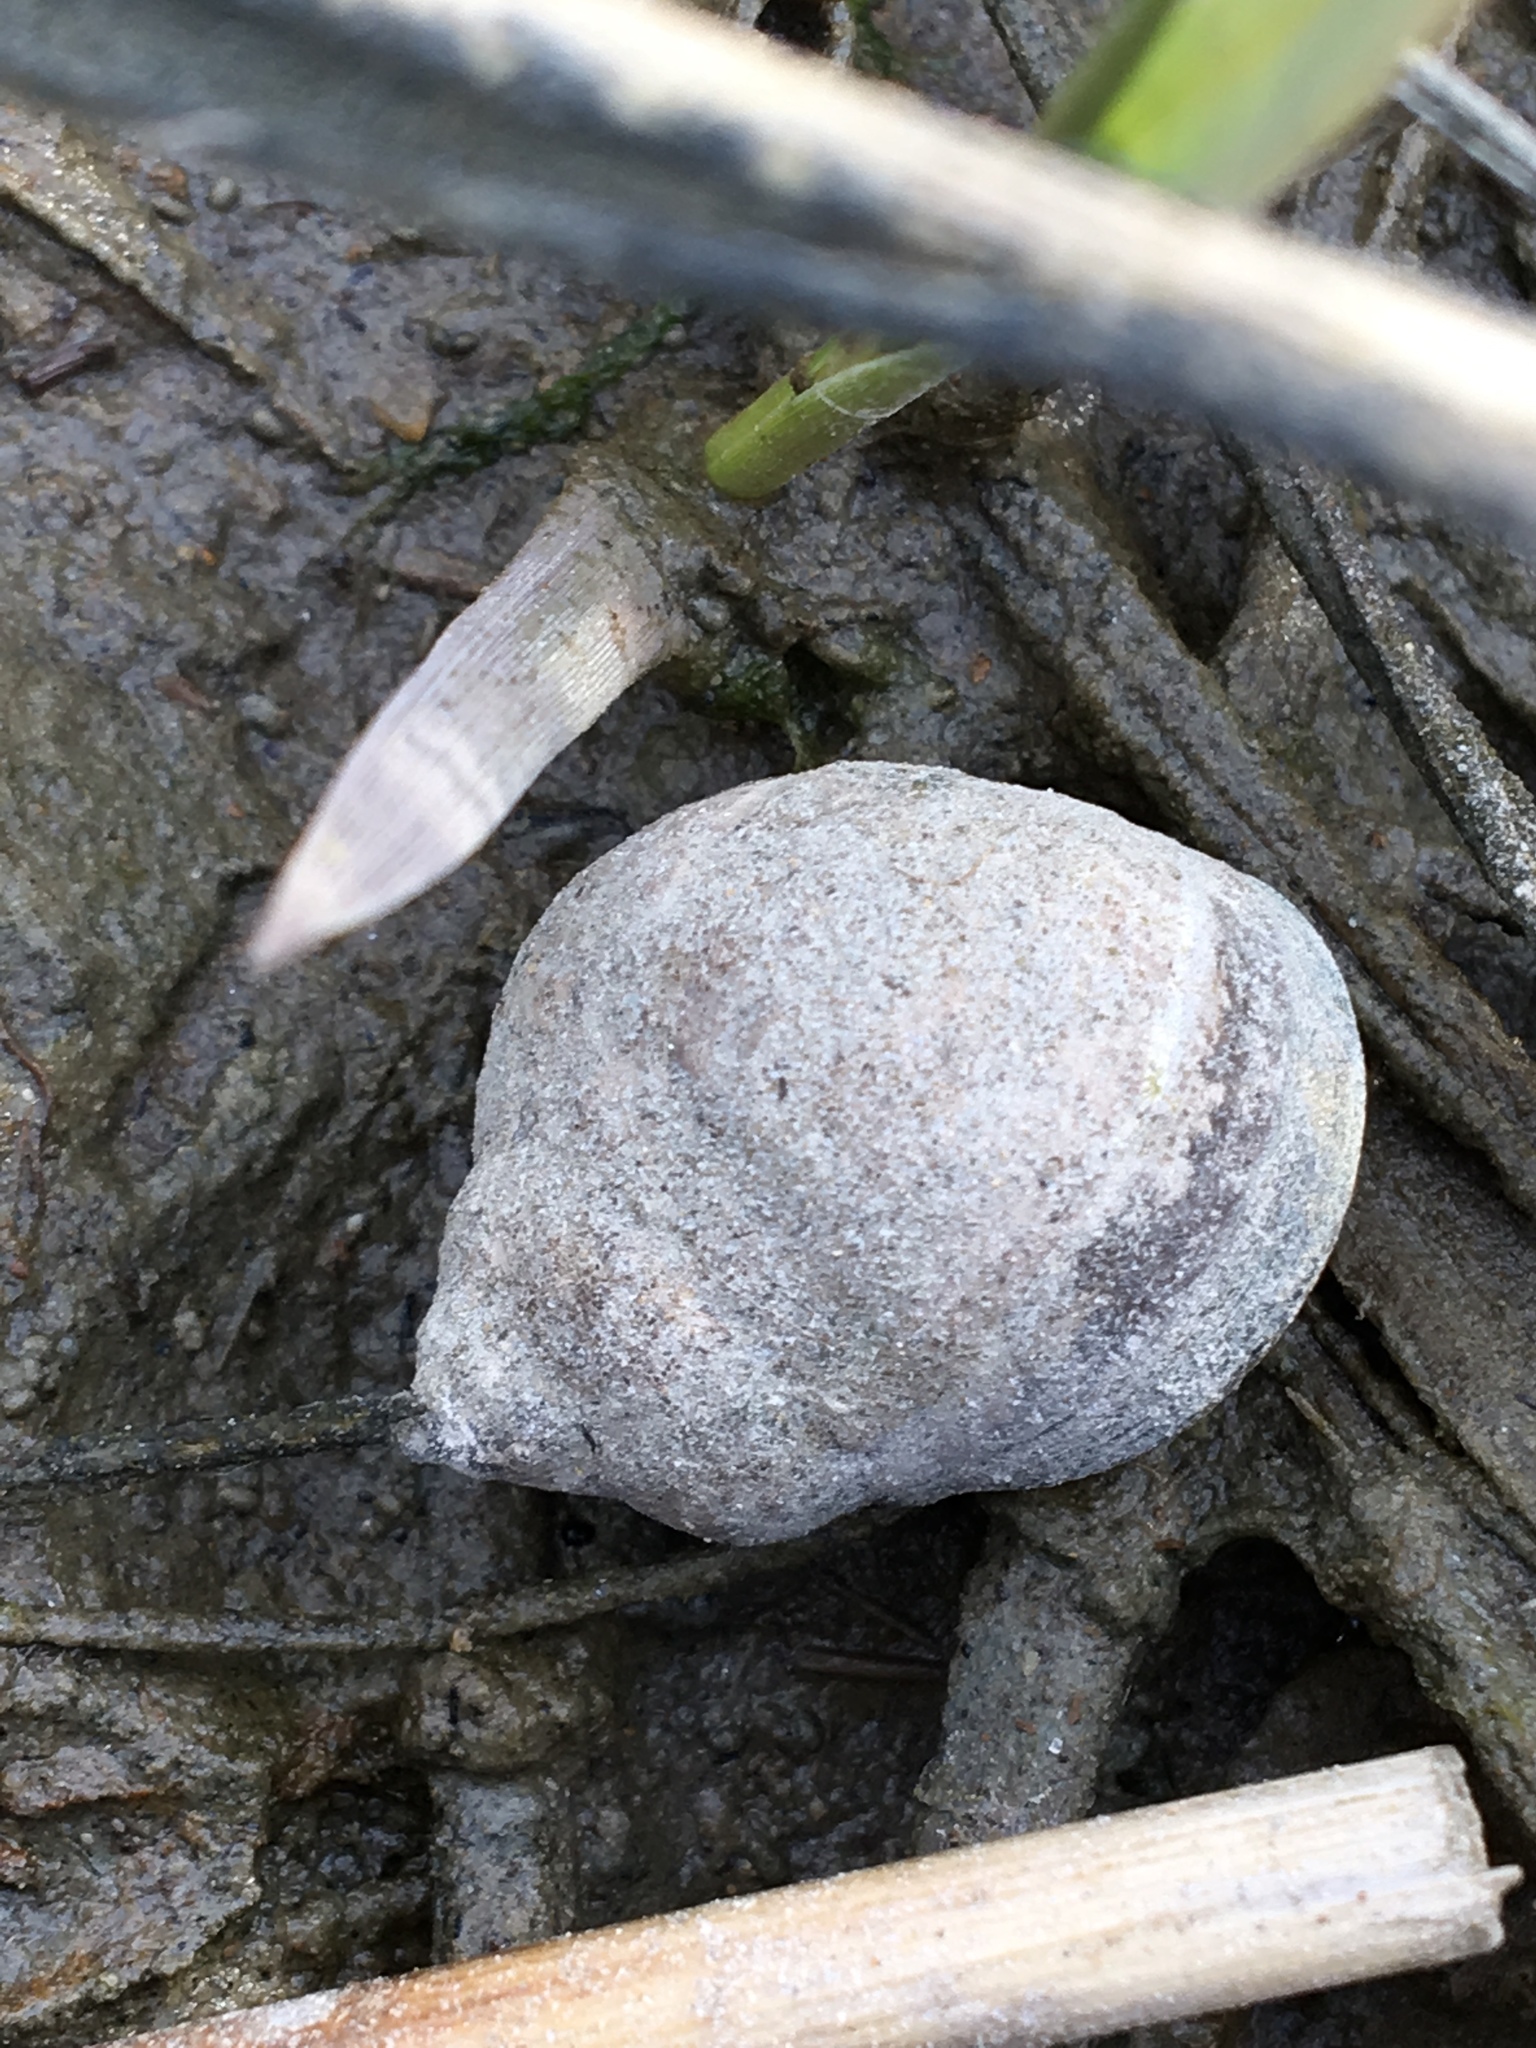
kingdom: Animalia
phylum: Mollusca
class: Gastropoda
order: Littorinimorpha
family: Littorinidae
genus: Littorina
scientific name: Littorina littorea
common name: Common periwinkle
